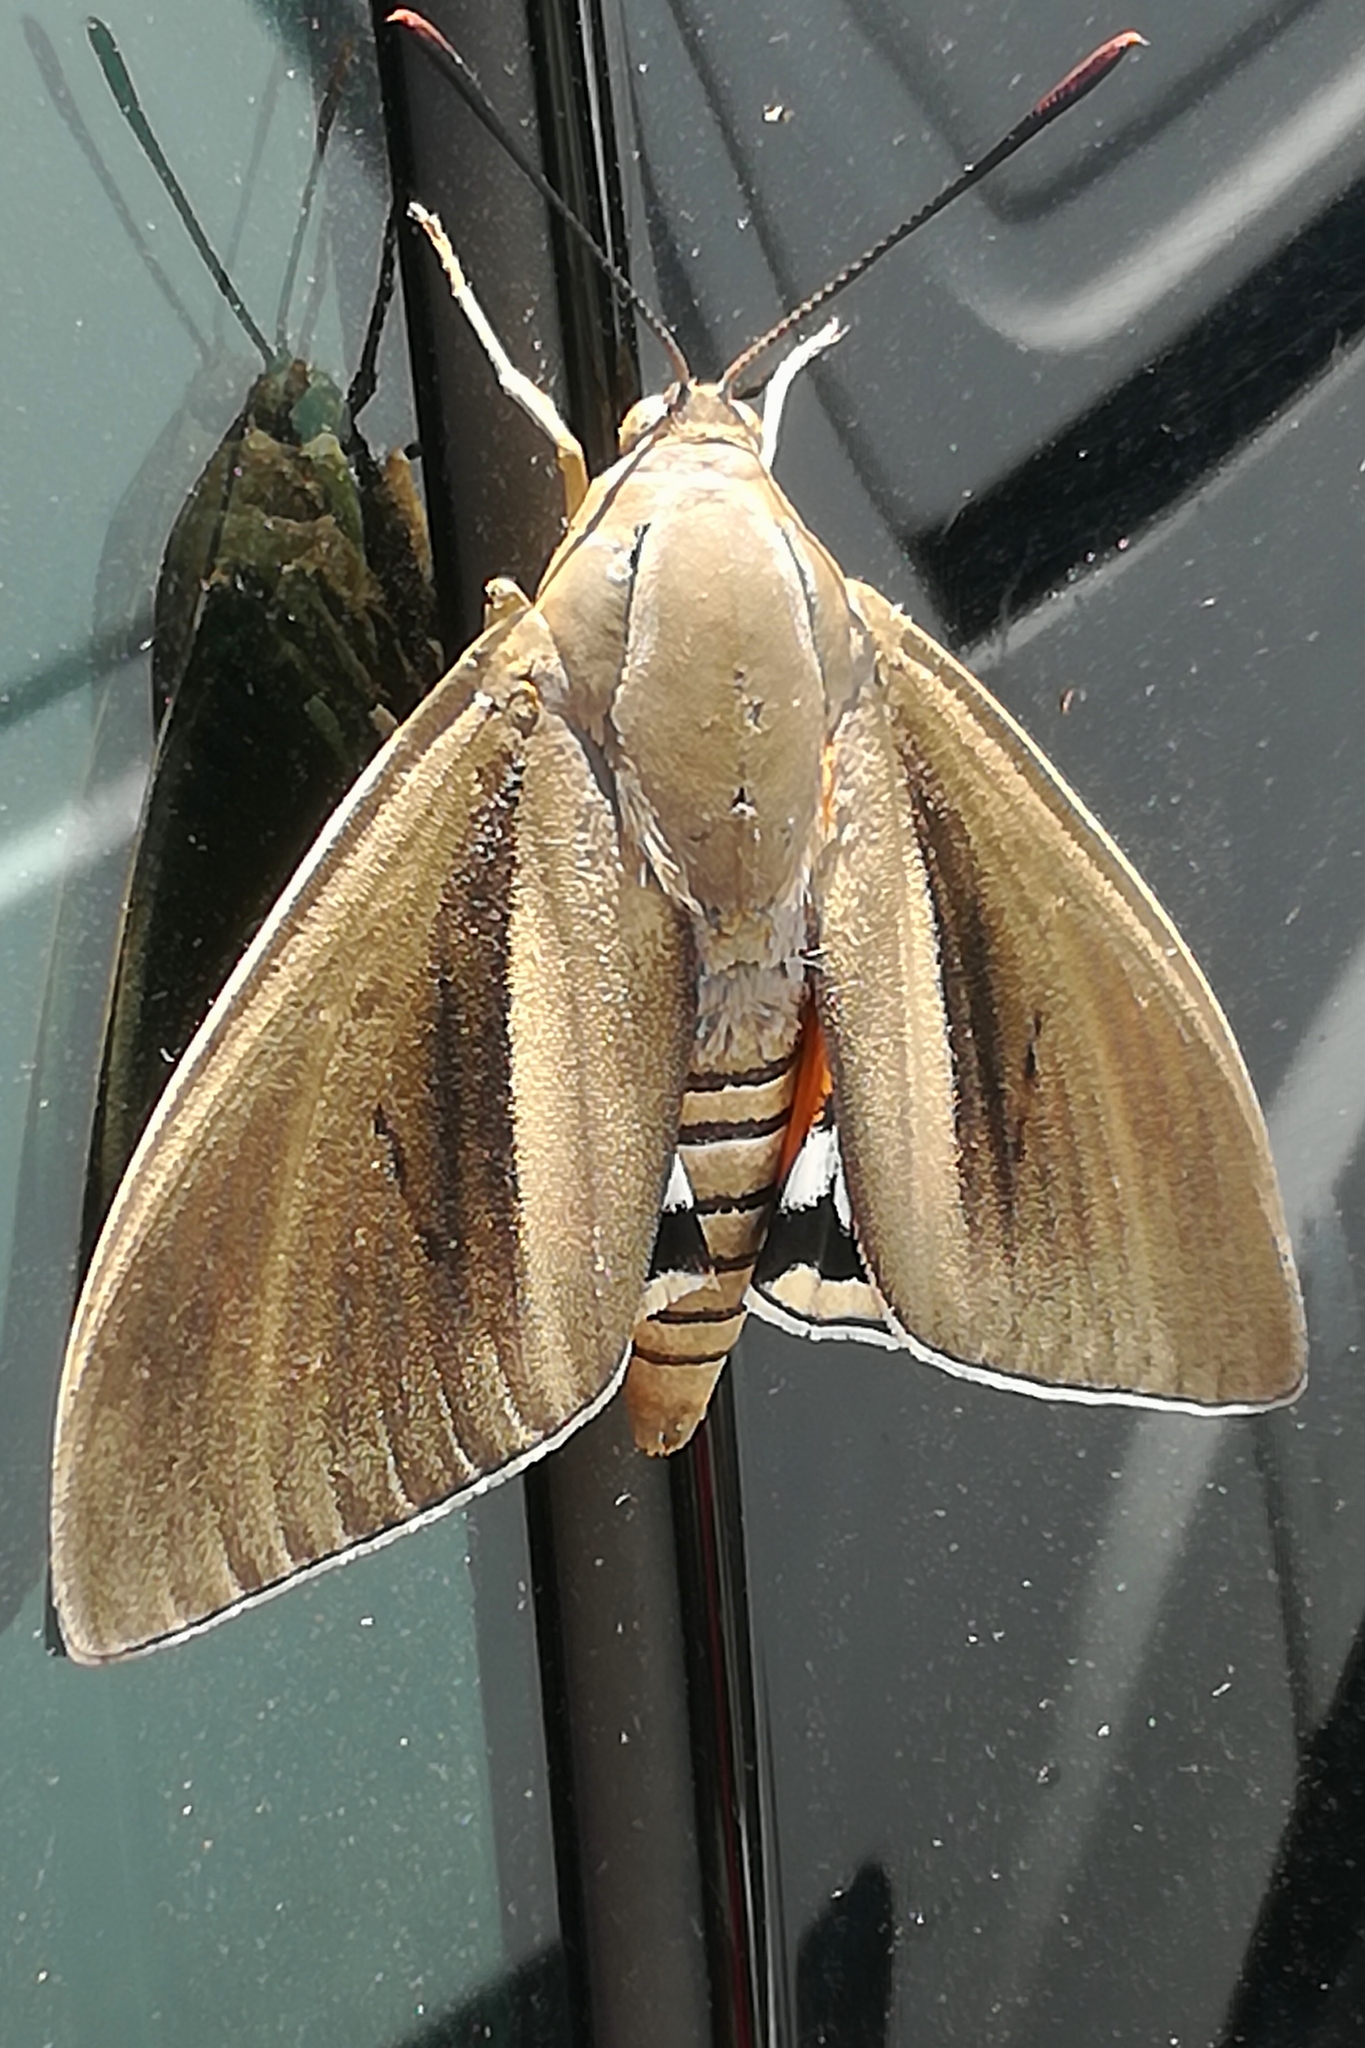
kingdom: Animalia
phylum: Arthropoda
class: Insecta
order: Lepidoptera
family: Castniidae
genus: Paysandisia
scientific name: Paysandisia archon
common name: Palm moth
